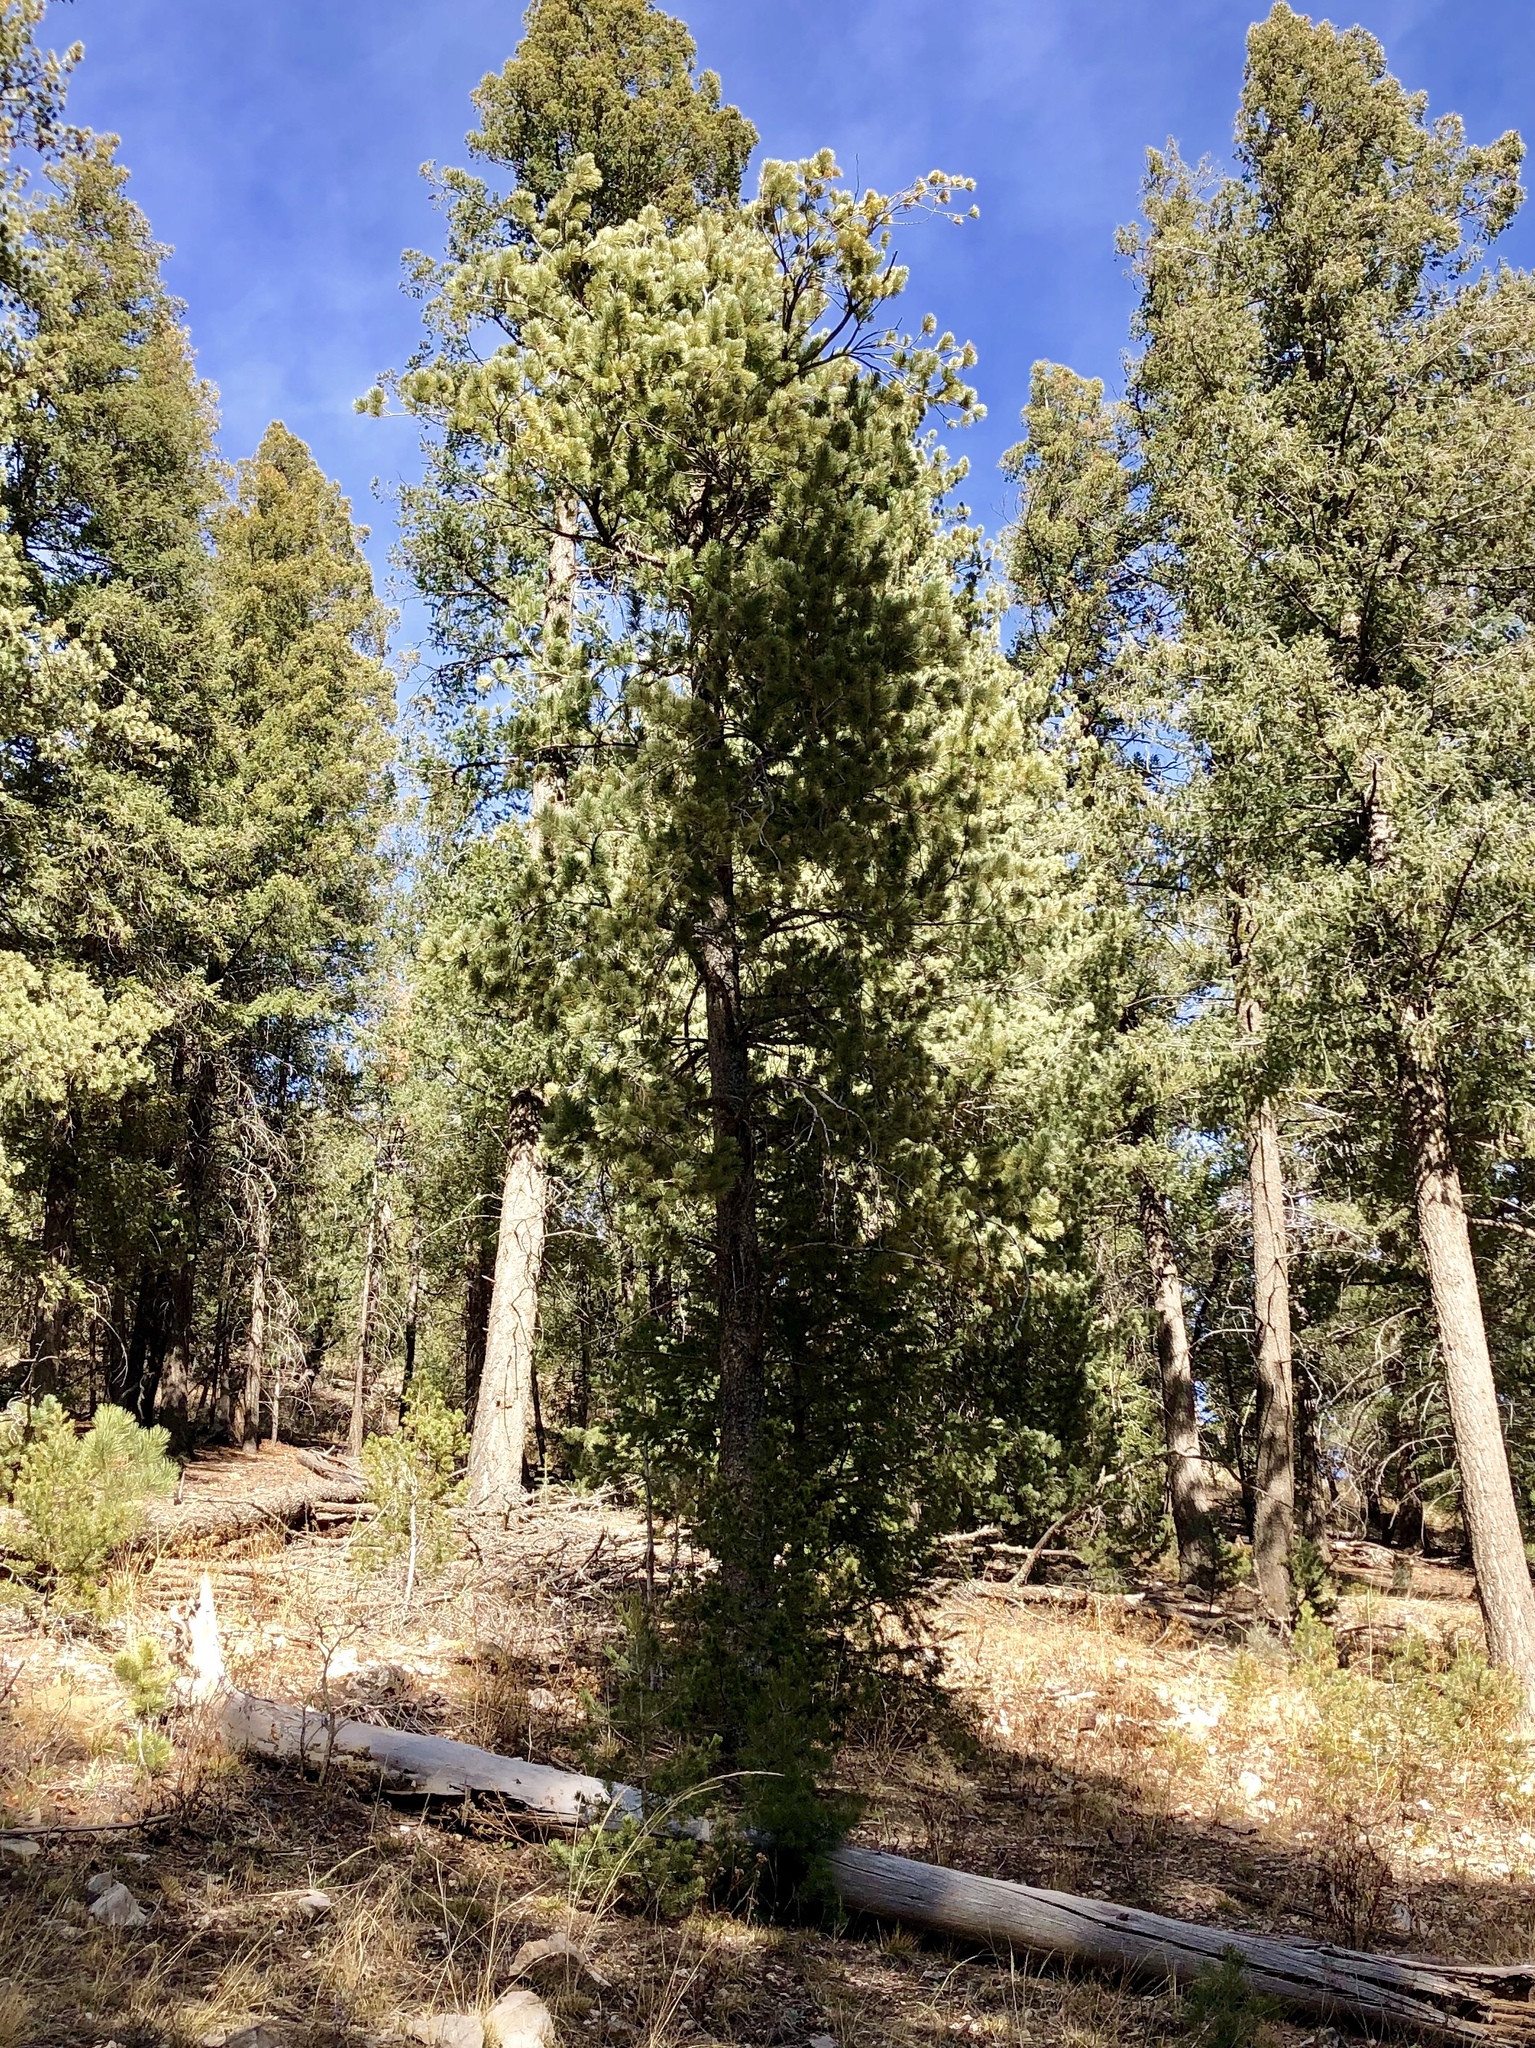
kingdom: Plantae
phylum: Tracheophyta
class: Pinopsida
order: Pinales
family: Pinaceae
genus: Pinus
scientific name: Pinus strobiformis
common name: Southwestern white pine
